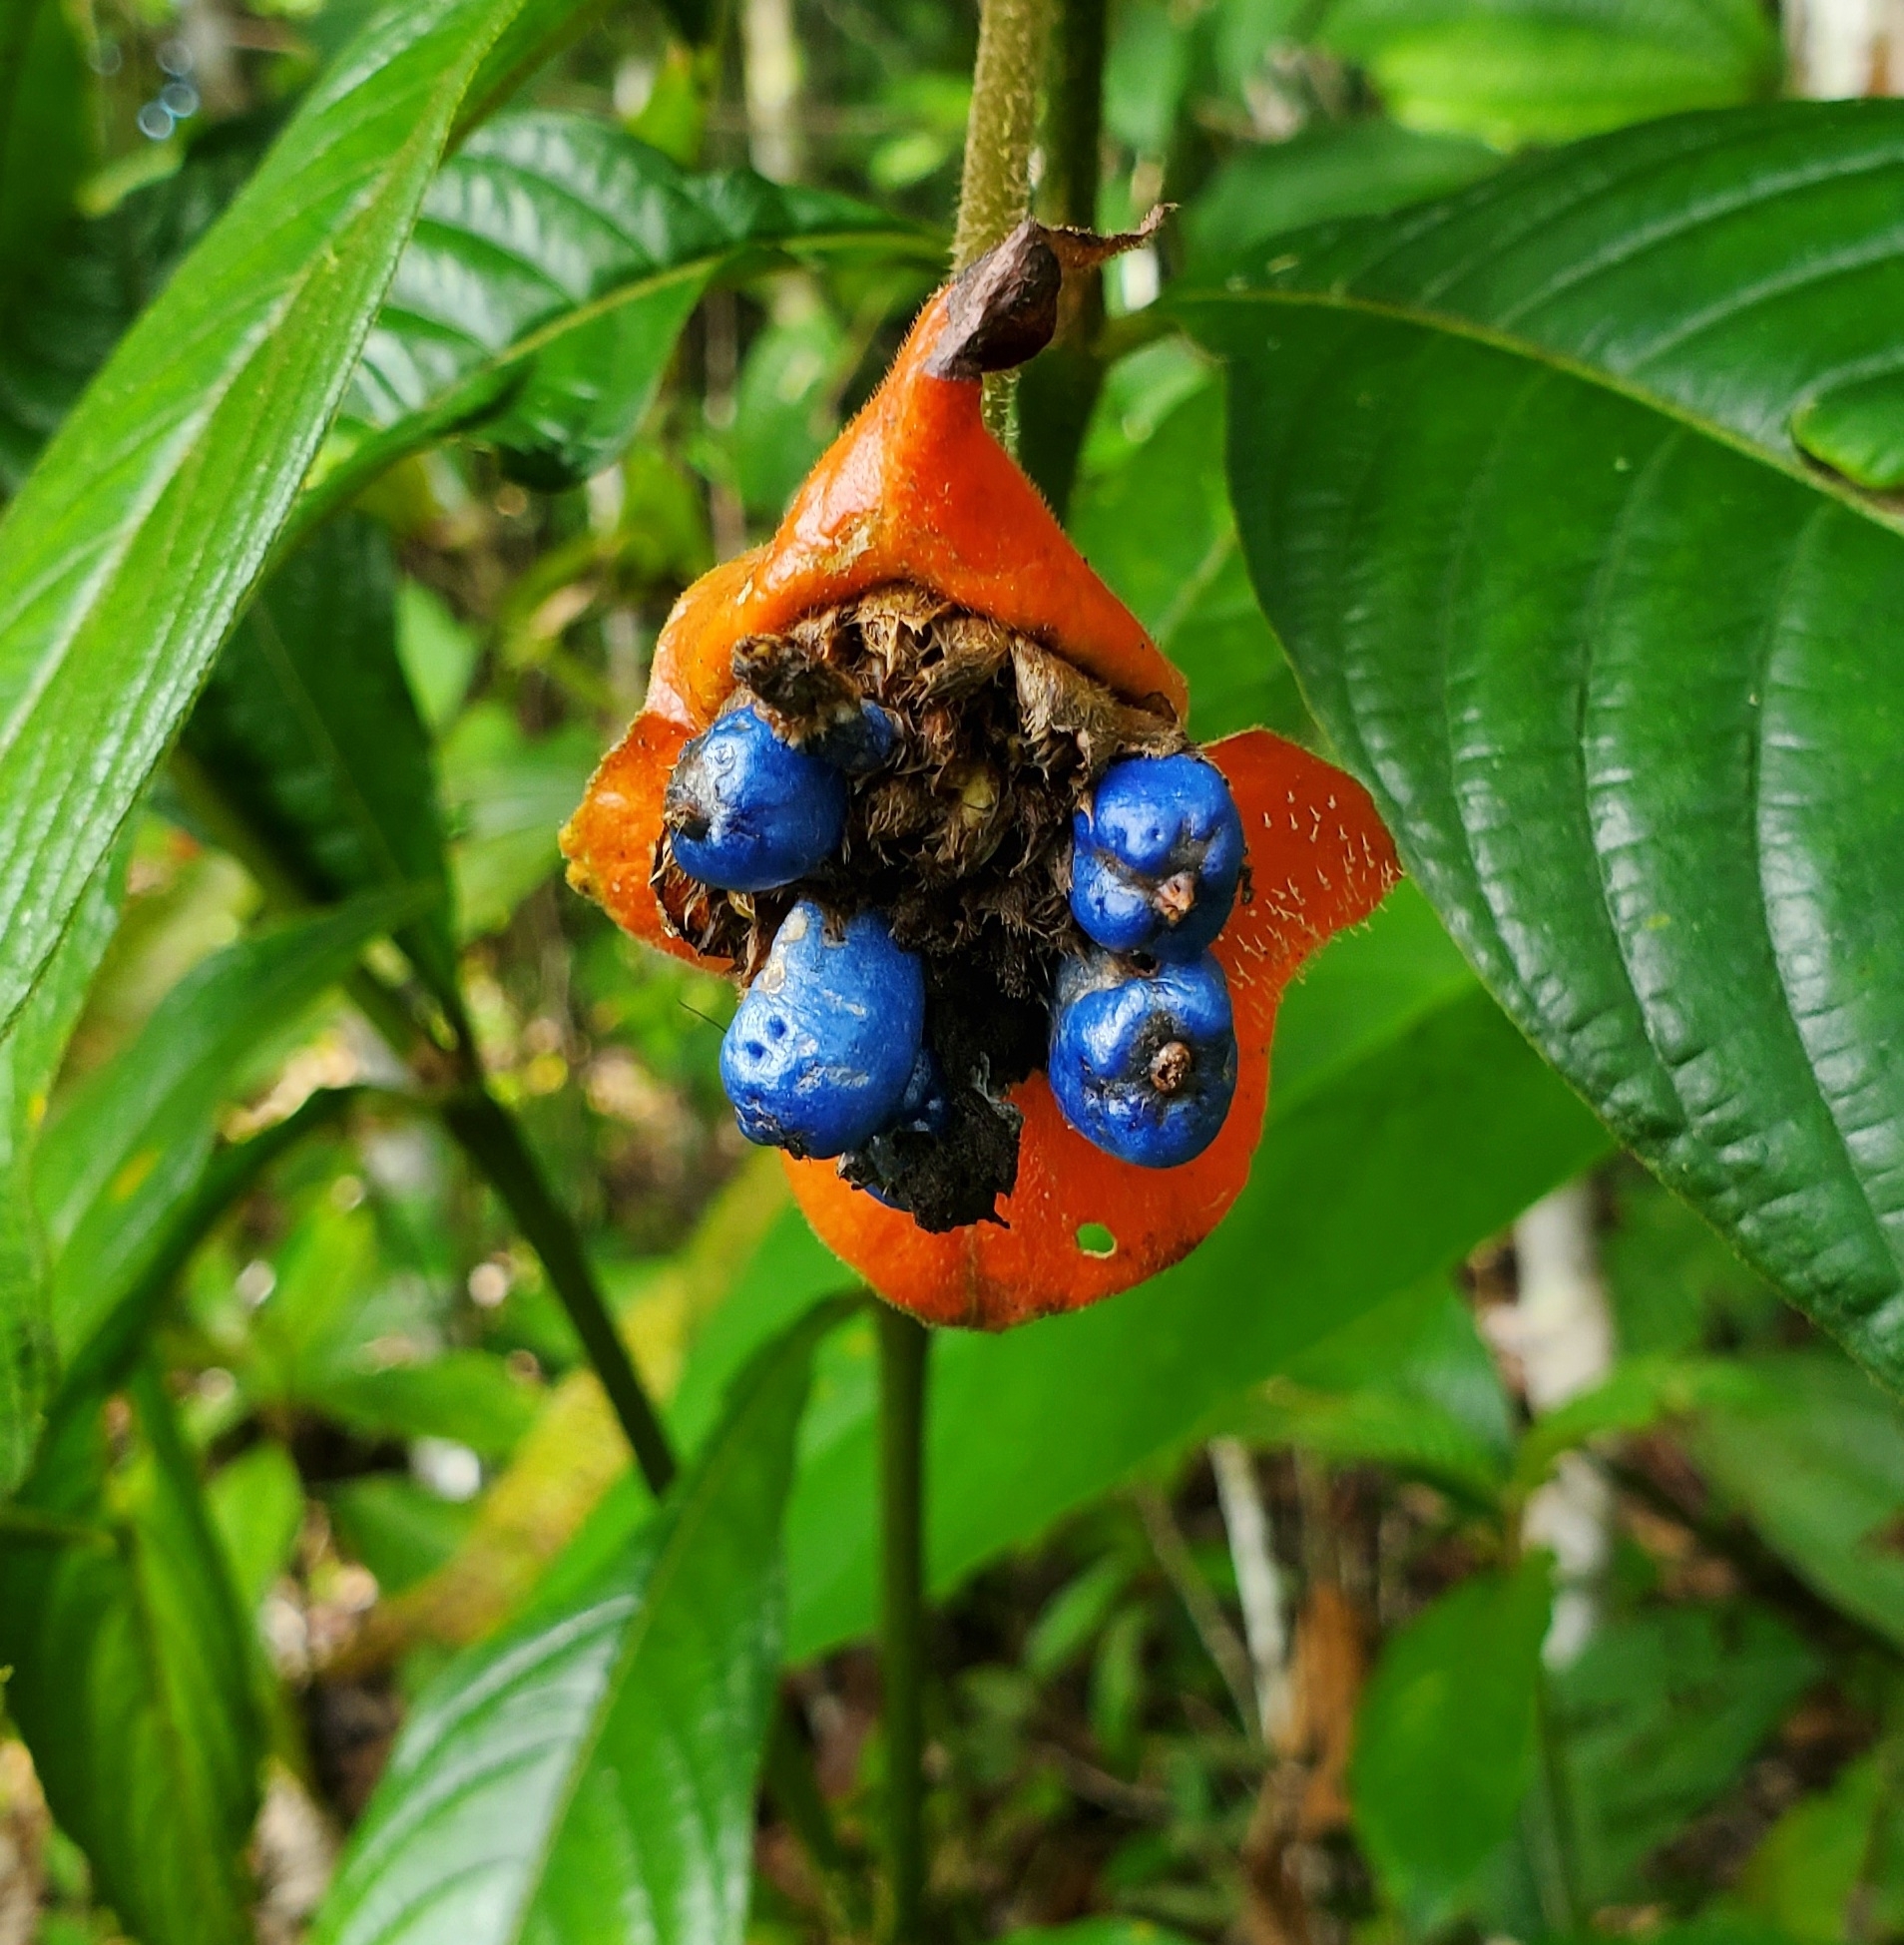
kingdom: Plantae
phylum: Tracheophyta
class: Magnoliopsida
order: Gentianales
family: Rubiaceae
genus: Palicourea
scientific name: Palicourea tomentosa
